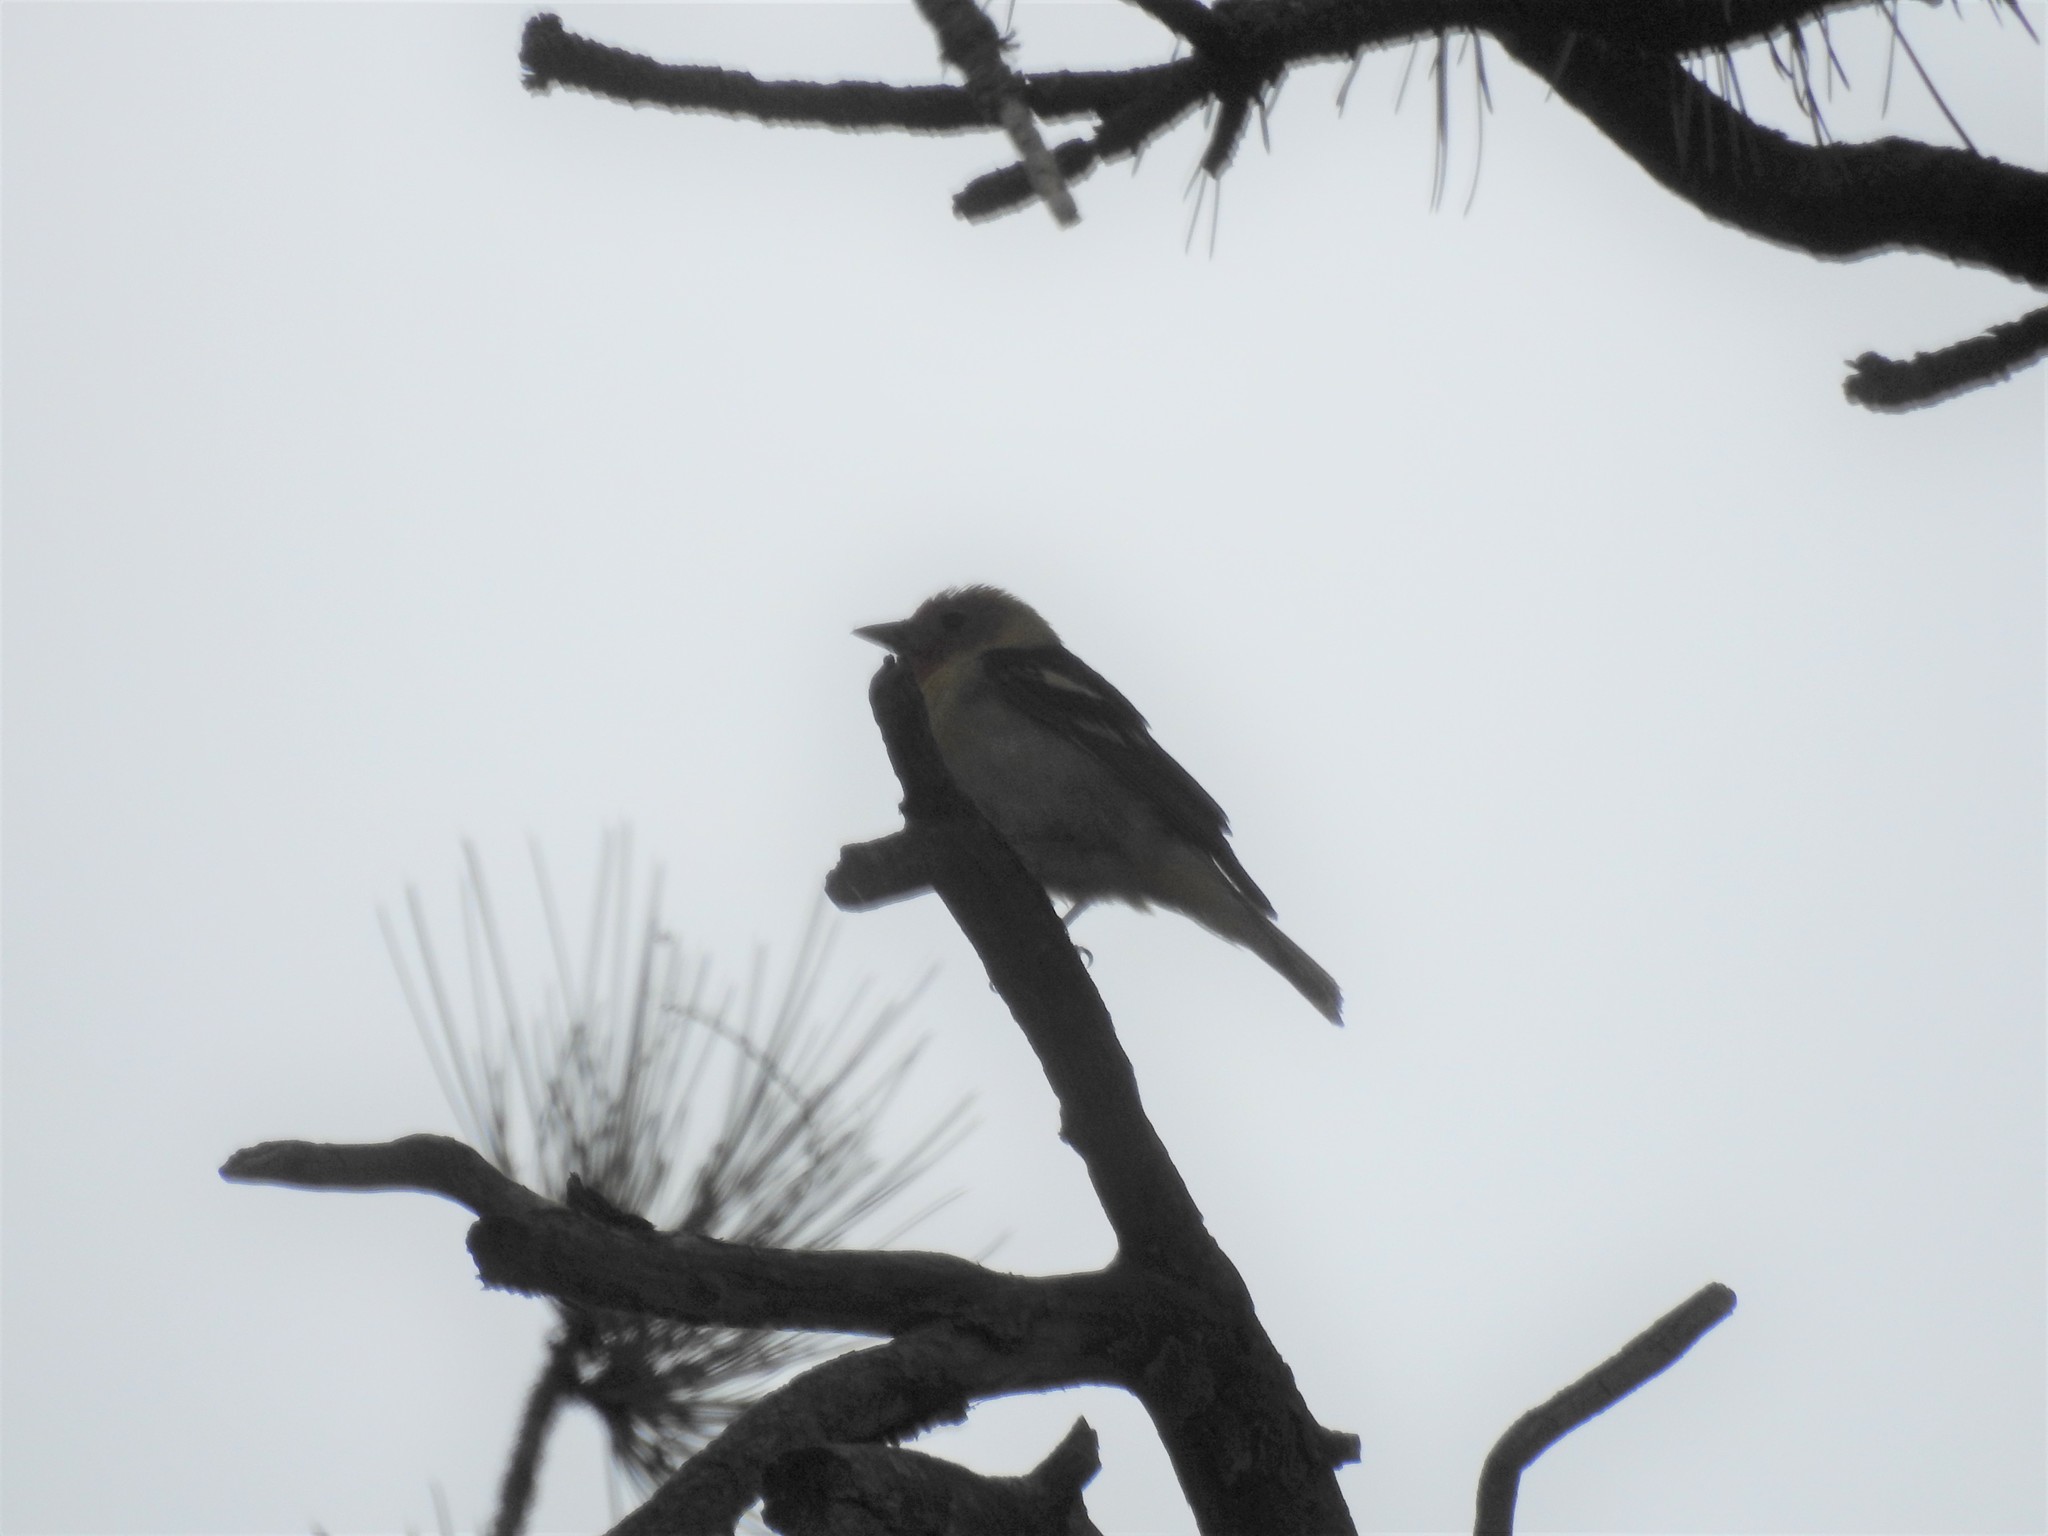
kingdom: Animalia
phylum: Chordata
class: Aves
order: Passeriformes
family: Cardinalidae
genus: Piranga
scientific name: Piranga ludoviciana
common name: Western tanager
